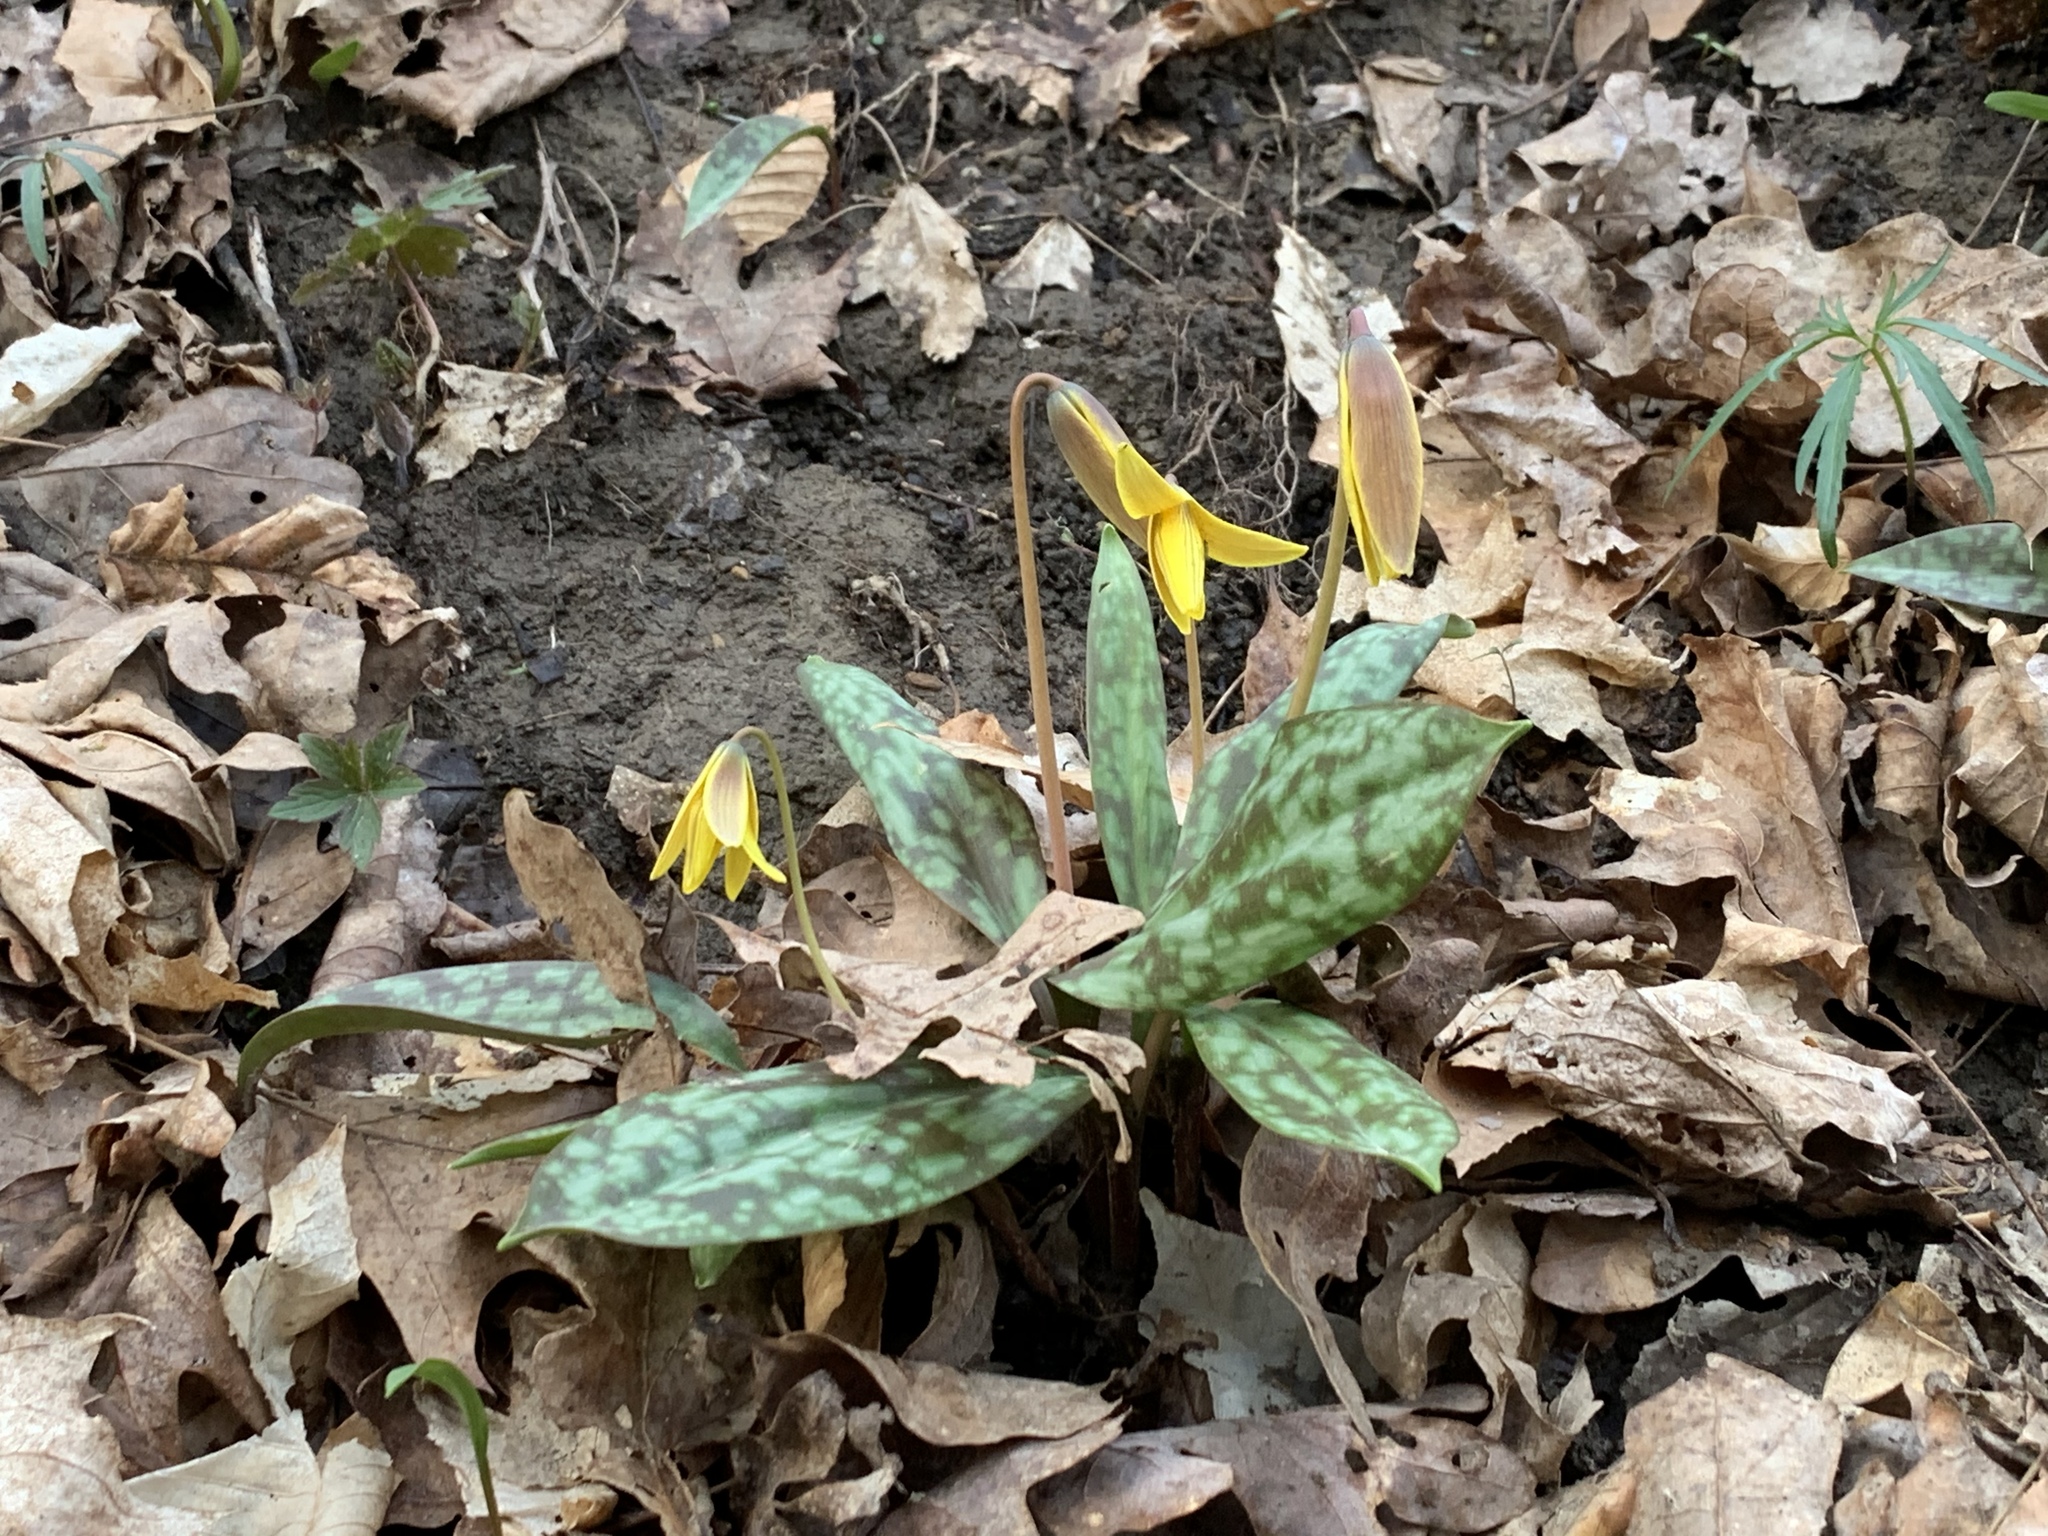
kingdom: Plantae
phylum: Tracheophyta
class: Liliopsida
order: Liliales
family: Liliaceae
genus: Erythronium
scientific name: Erythronium americanum
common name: Yellow adder's-tongue
